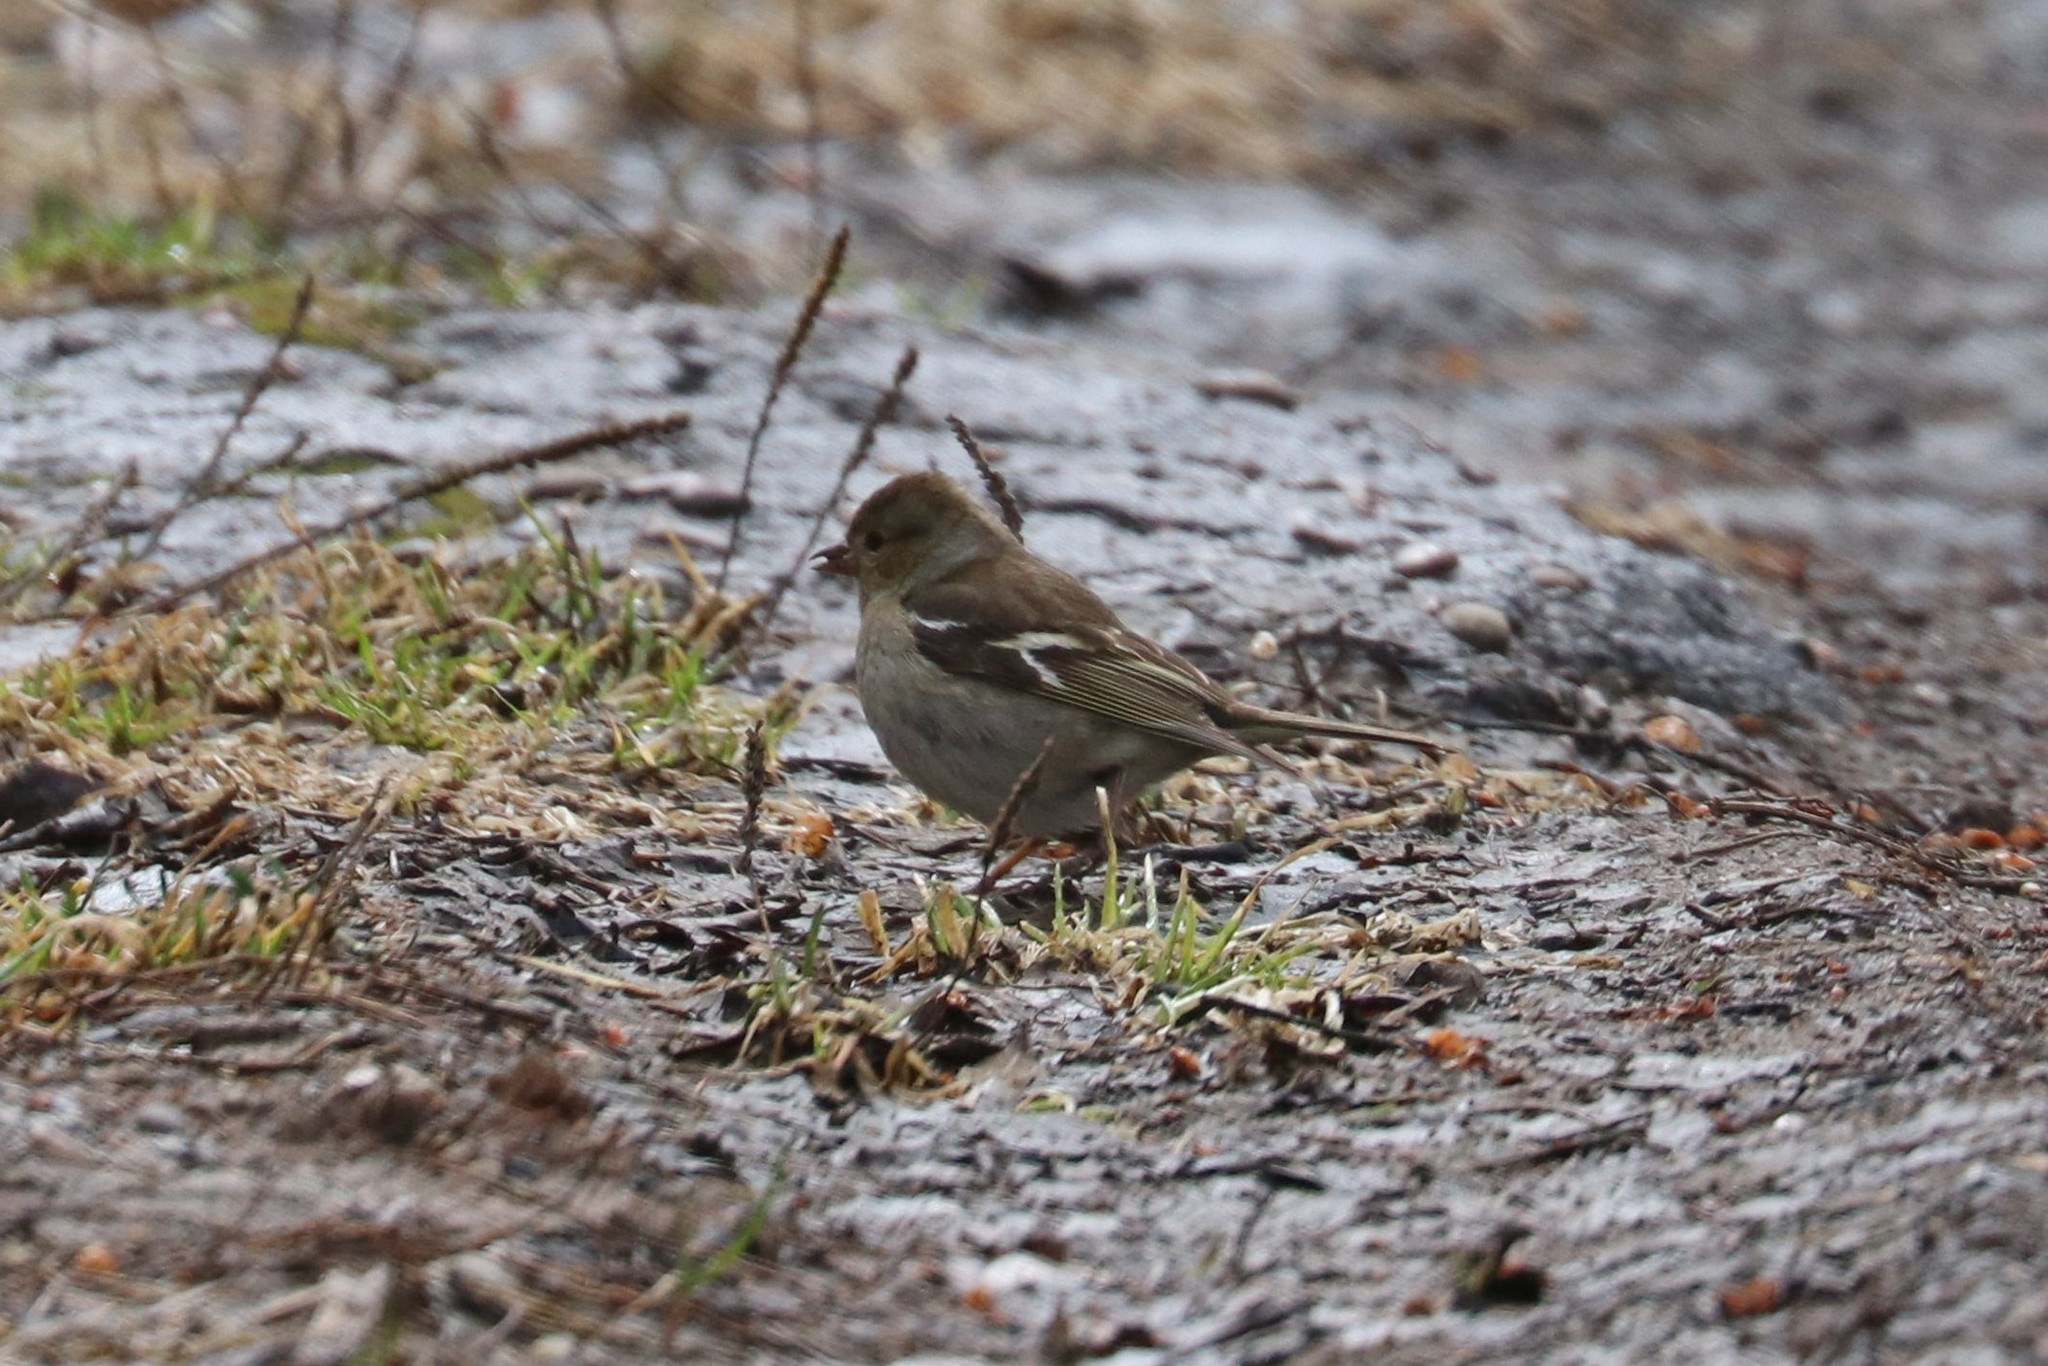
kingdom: Animalia
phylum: Chordata
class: Aves
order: Passeriformes
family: Fringillidae
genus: Fringilla
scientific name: Fringilla coelebs
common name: Common chaffinch
